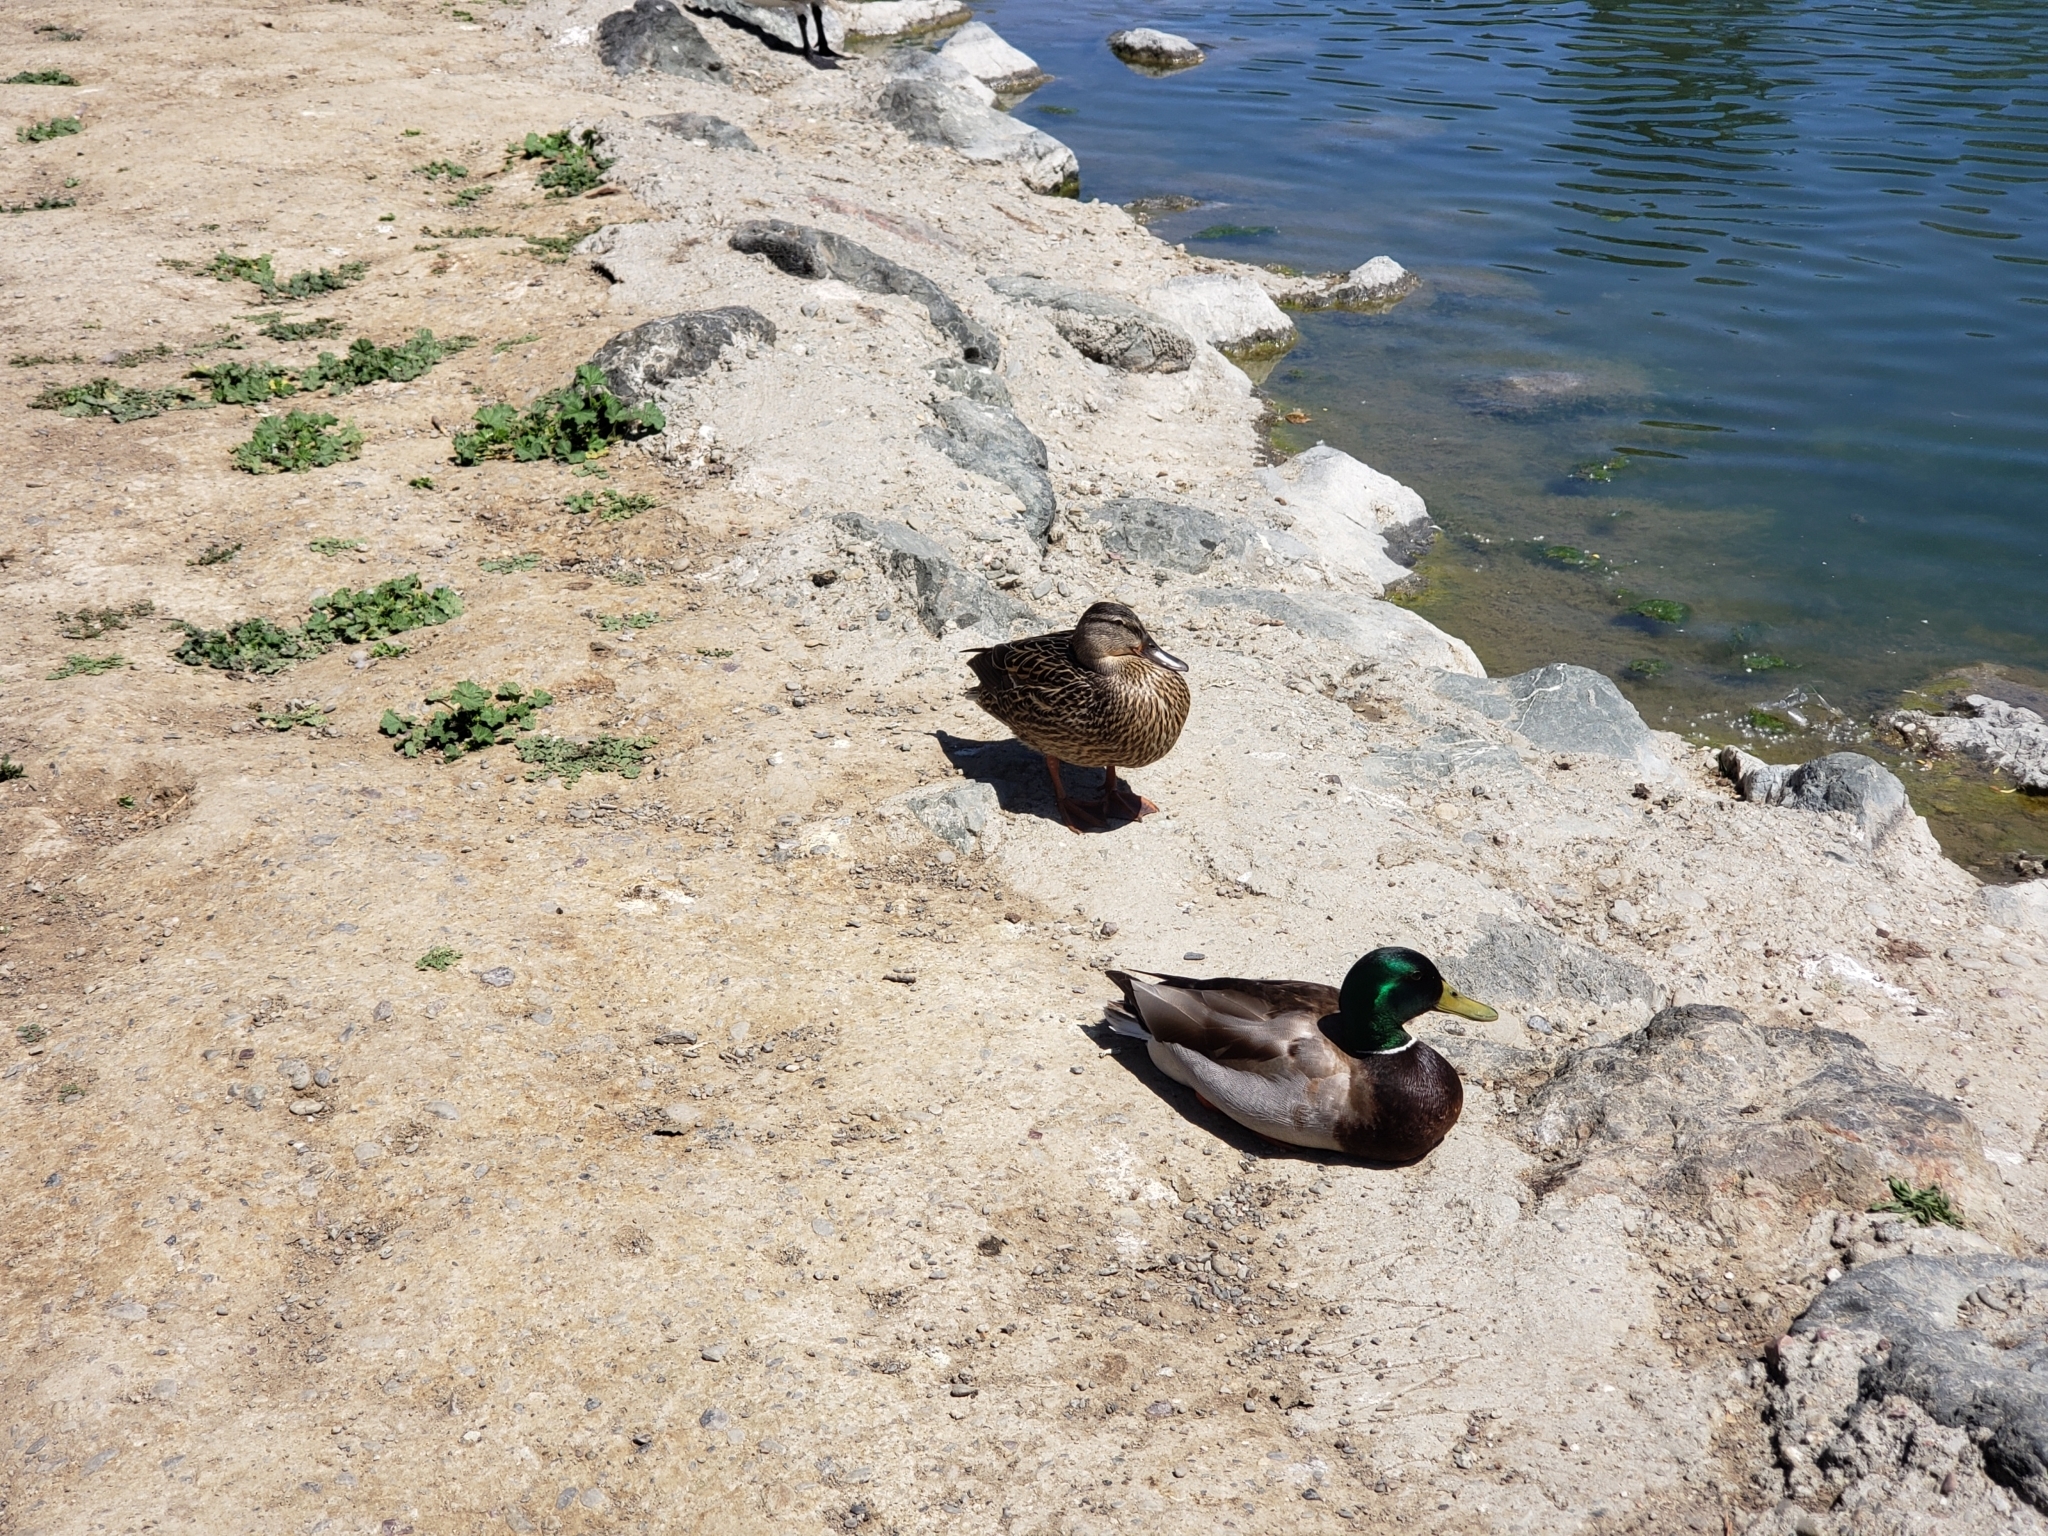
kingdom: Animalia
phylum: Chordata
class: Aves
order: Anseriformes
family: Anatidae
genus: Anas
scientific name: Anas platyrhynchos
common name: Mallard
